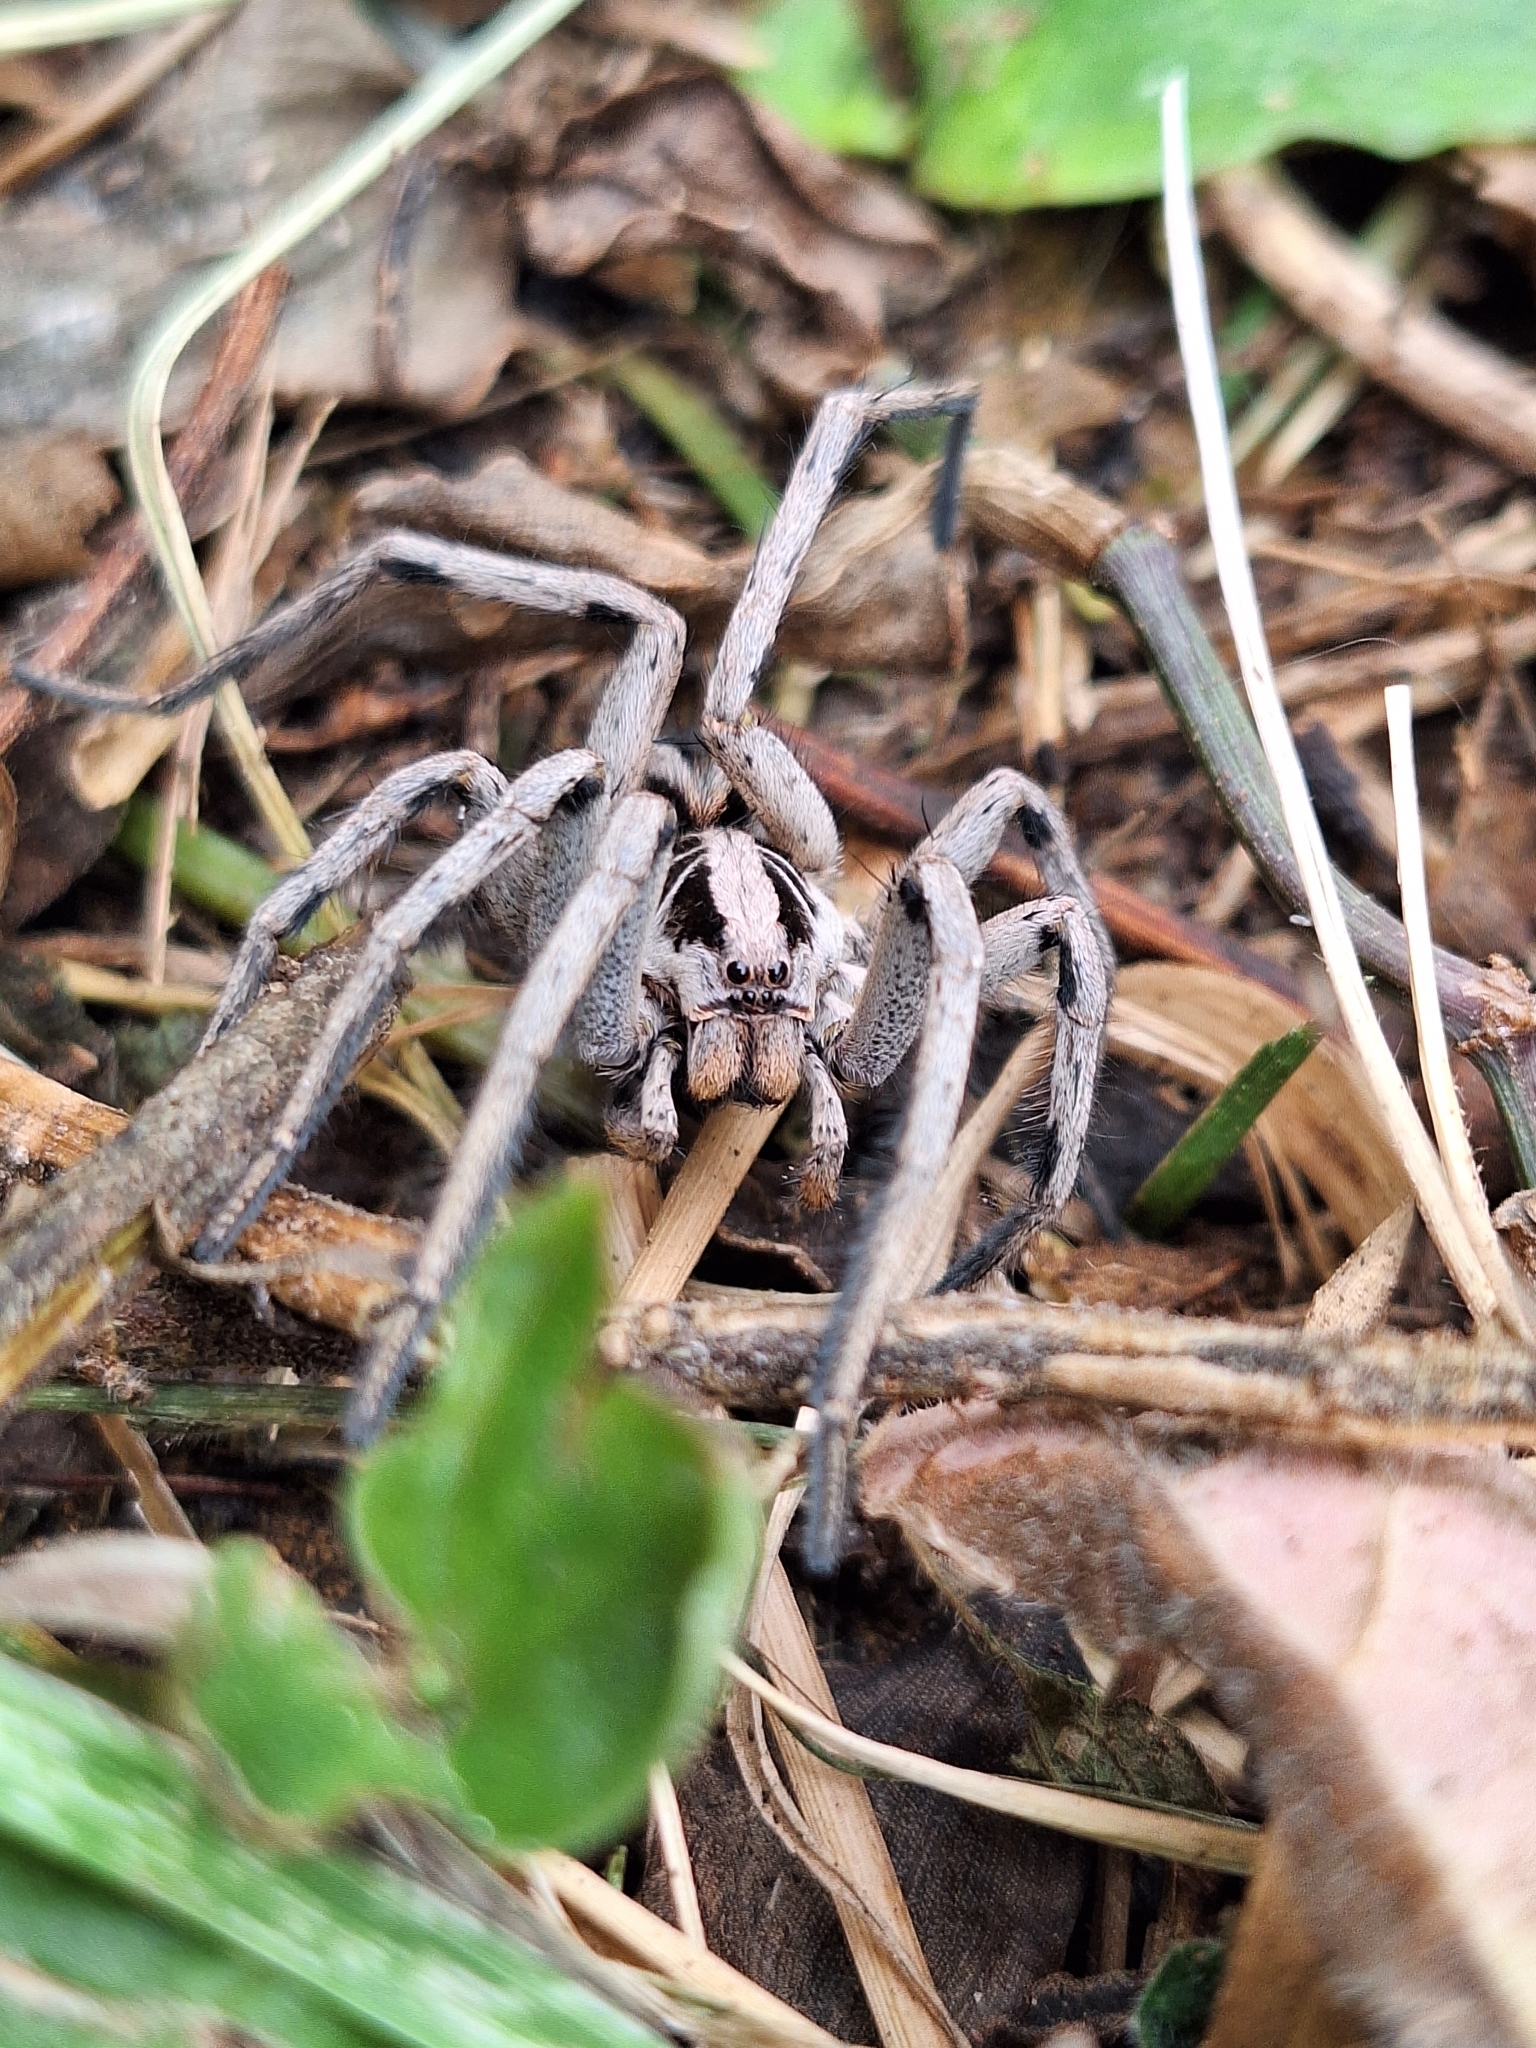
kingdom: Animalia
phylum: Arthropoda
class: Arachnida
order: Araneae
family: Lycosidae
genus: Lycosa
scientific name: Lycosa erythrognatha
